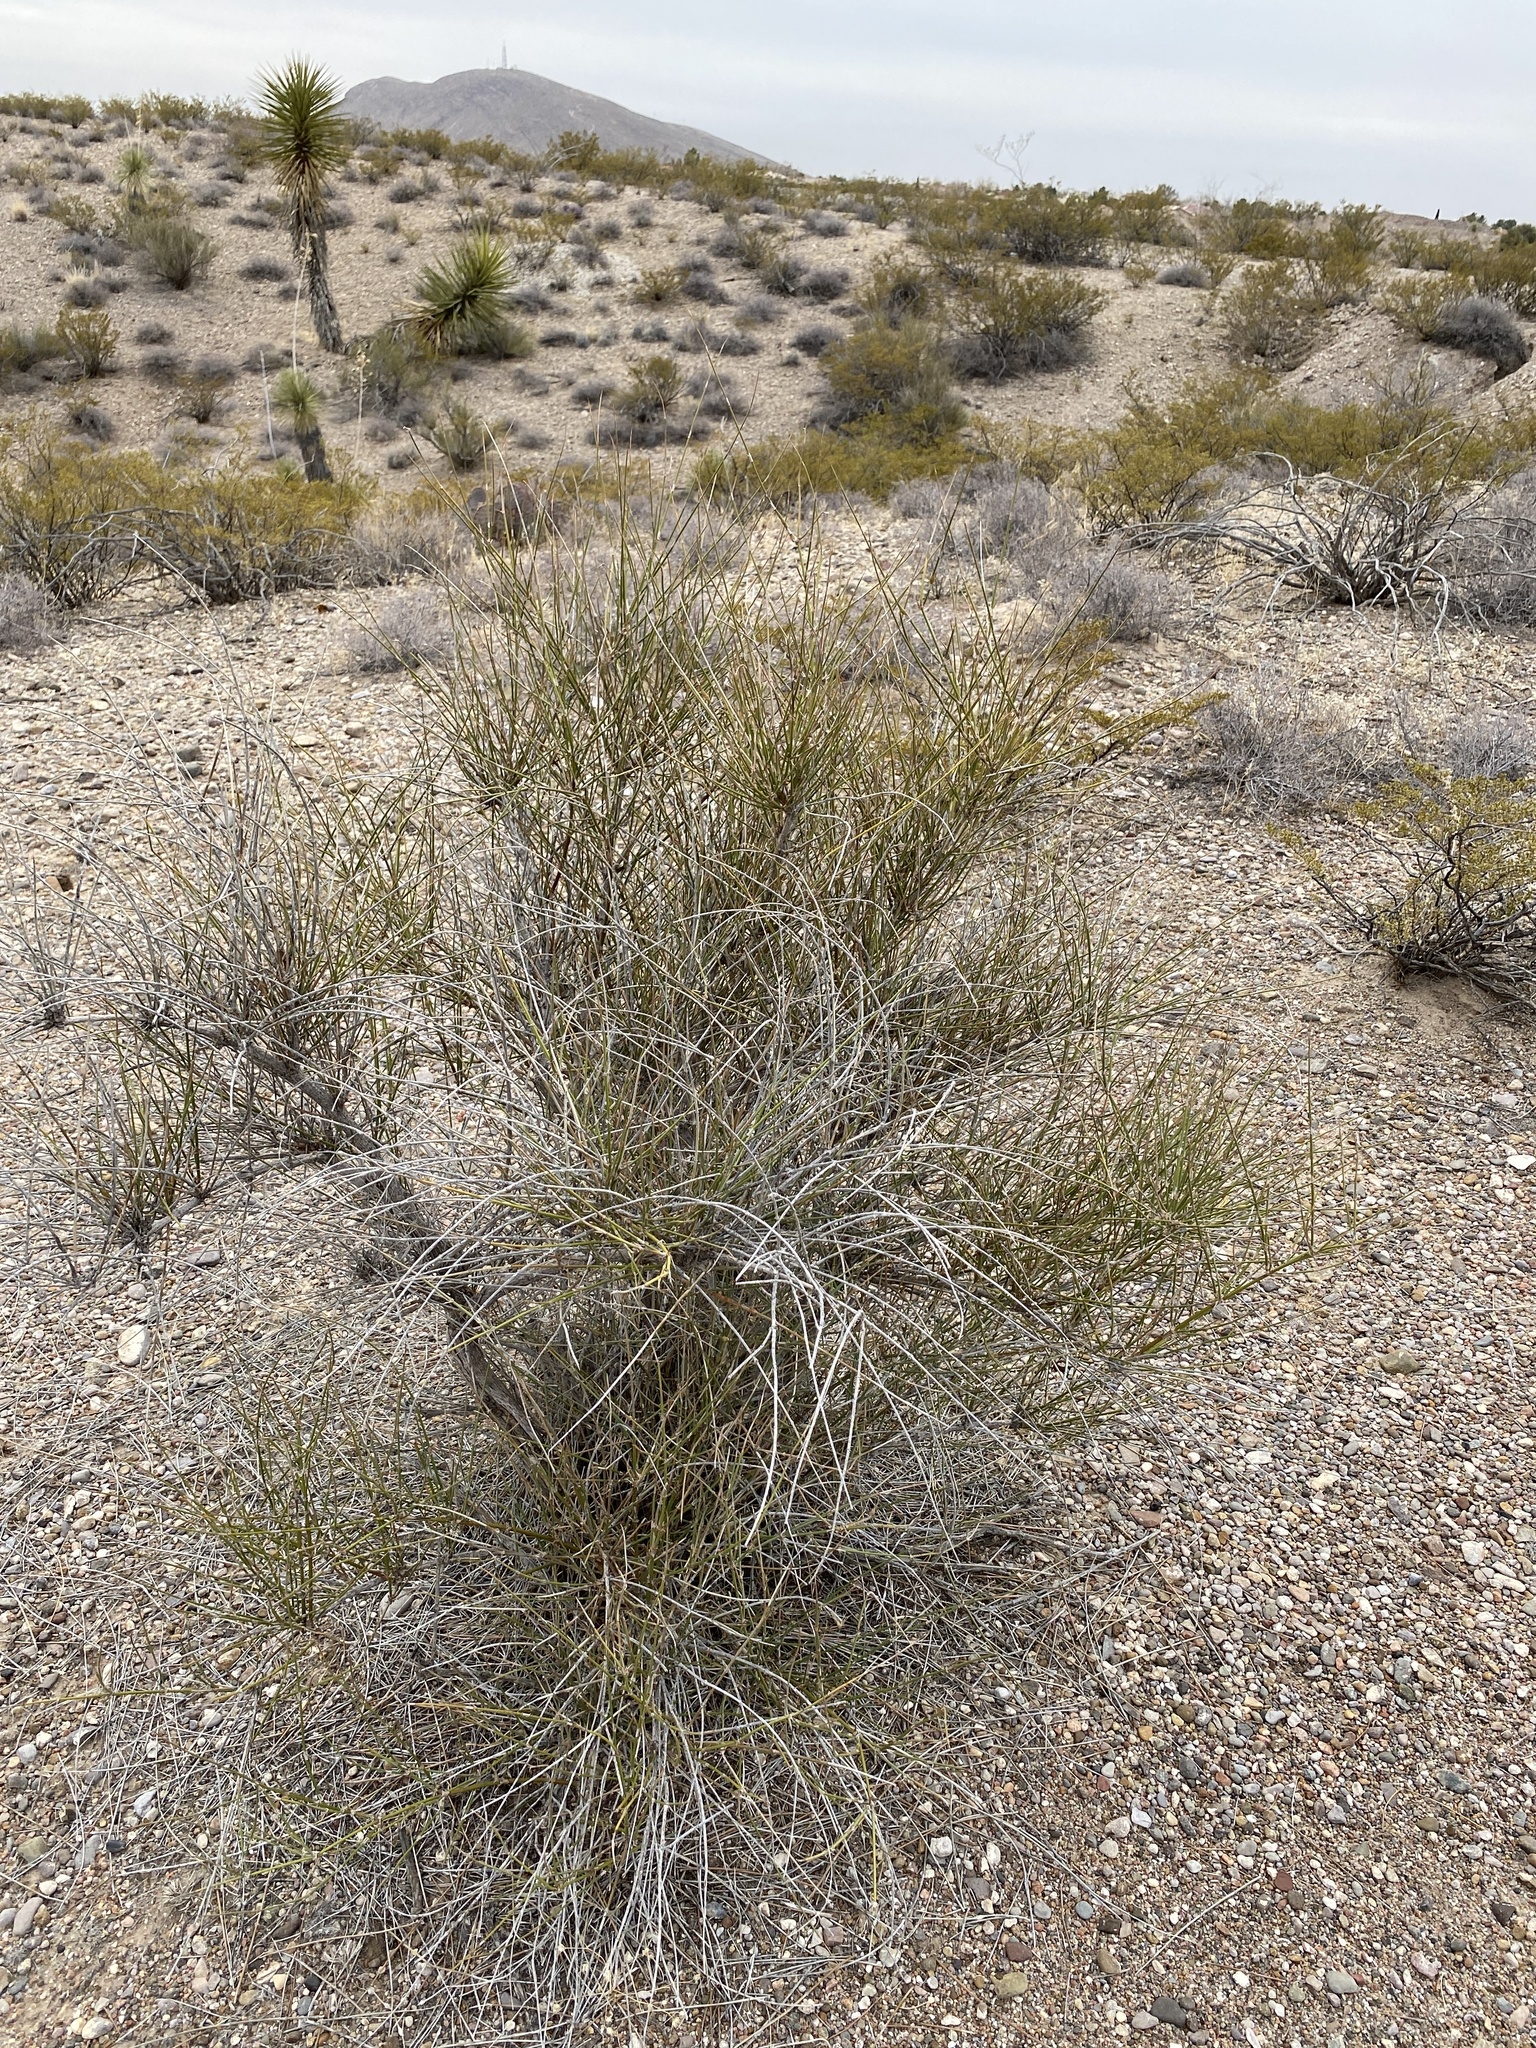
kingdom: Plantae
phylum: Tracheophyta
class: Gnetopsida
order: Ephedrales
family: Ephedraceae
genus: Ephedra
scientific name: Ephedra trifurca
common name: Mexican-tea
